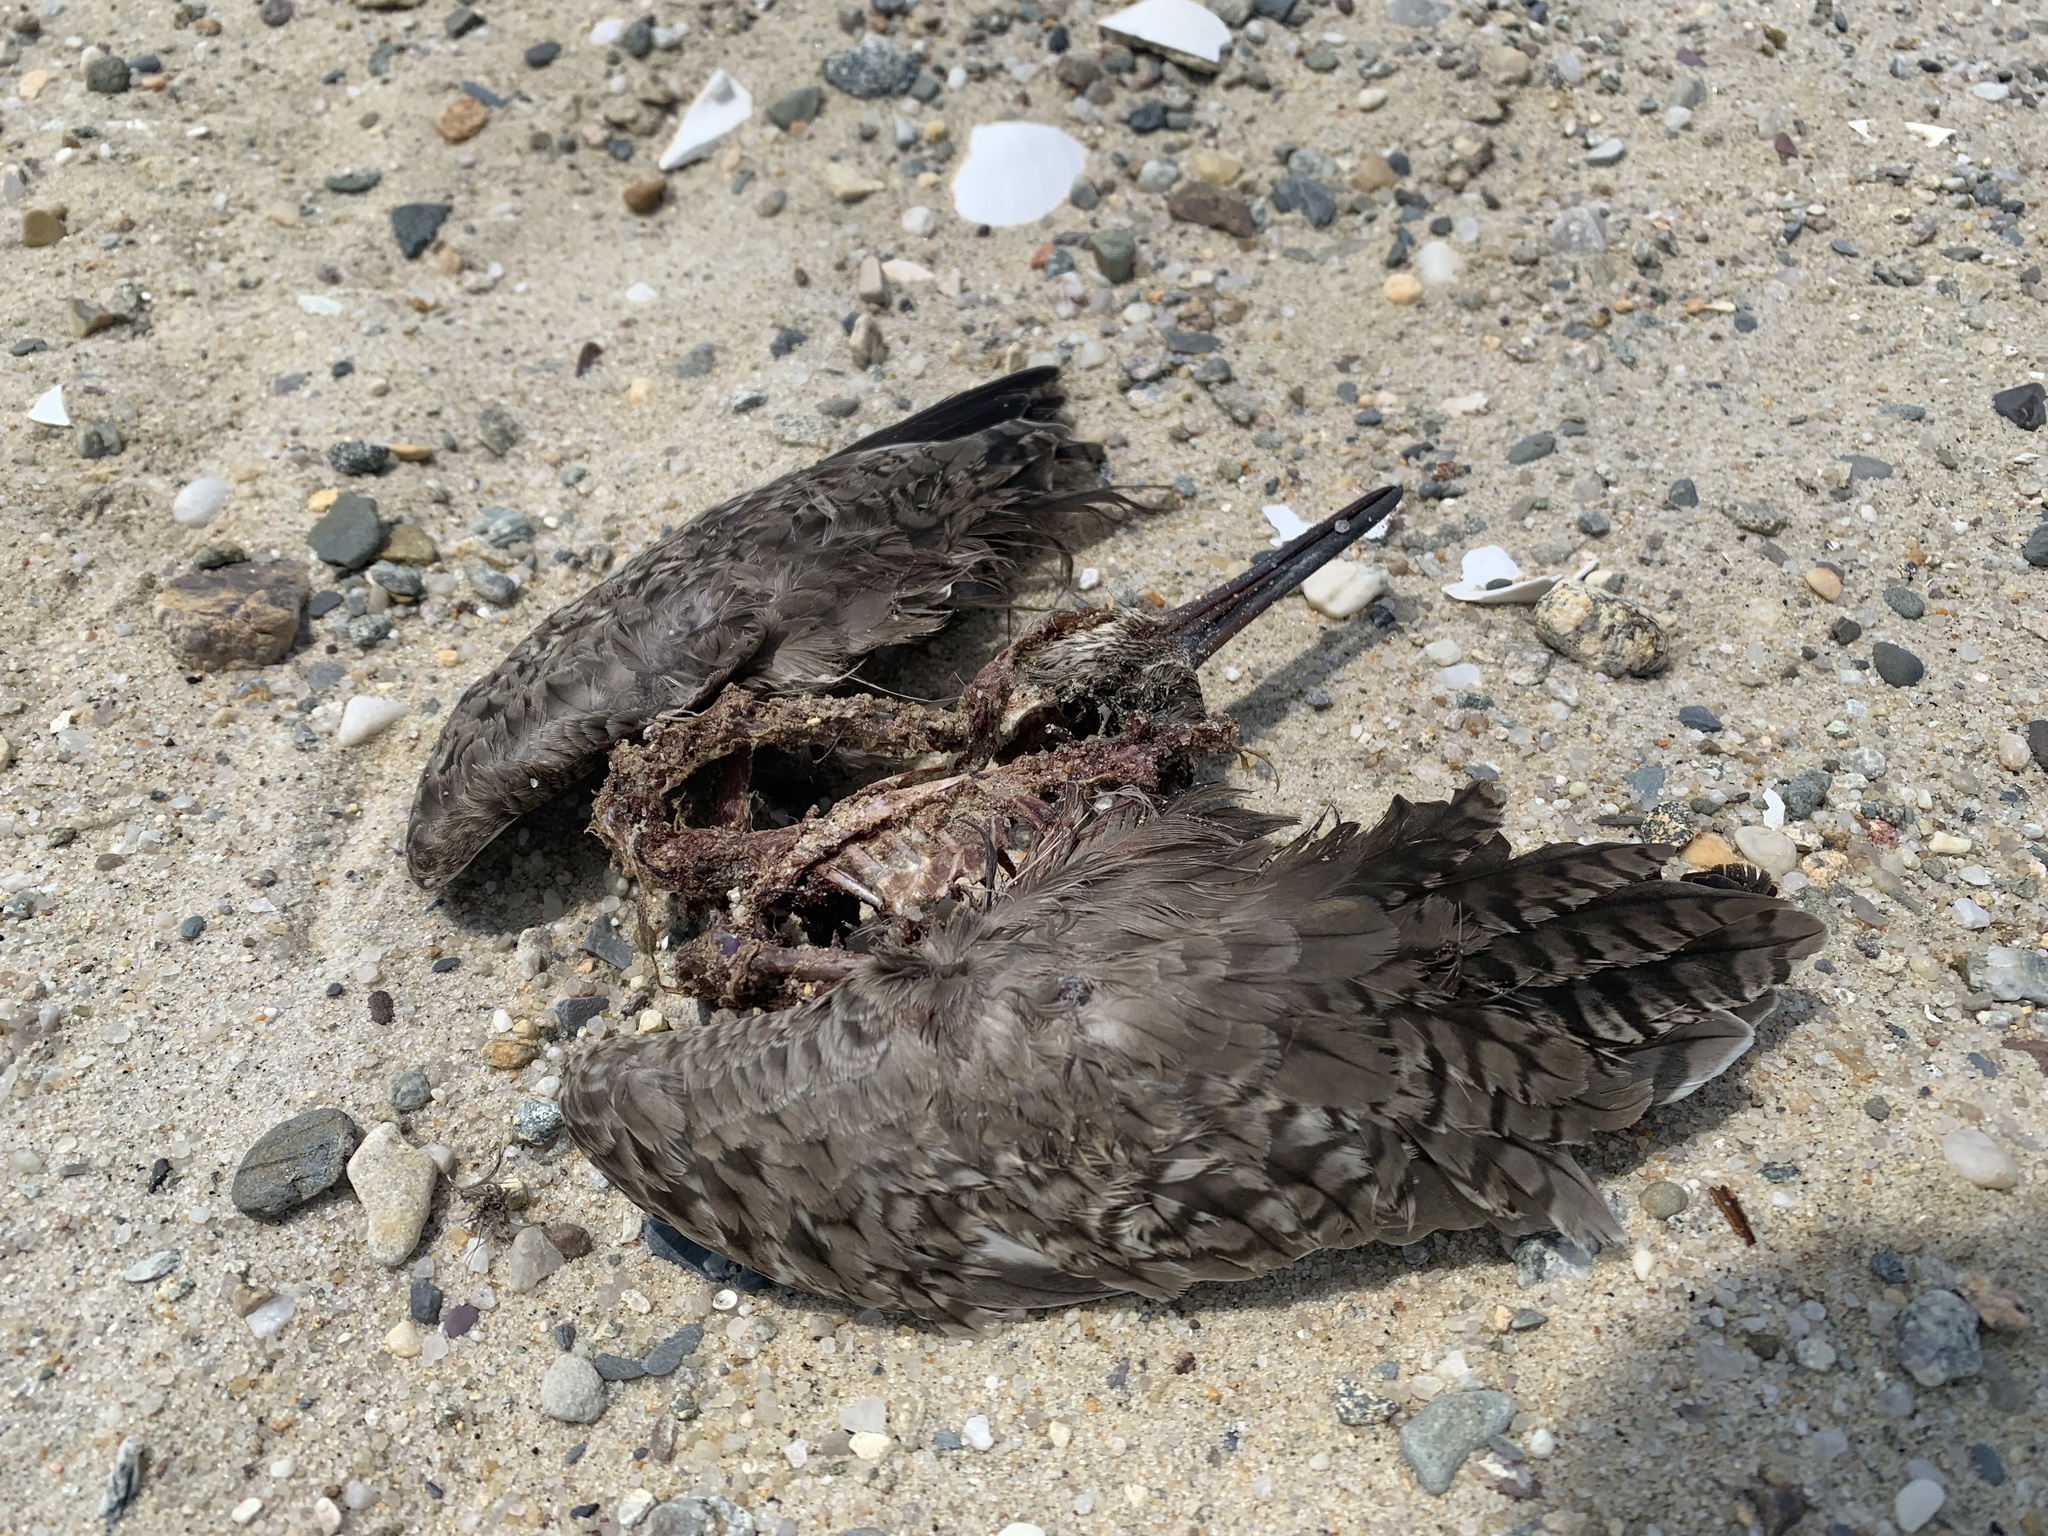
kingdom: Animalia
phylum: Chordata
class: Aves
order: Charadriiformes
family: Scolopacidae
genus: Tringa
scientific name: Tringa semipalmata
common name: Willet
